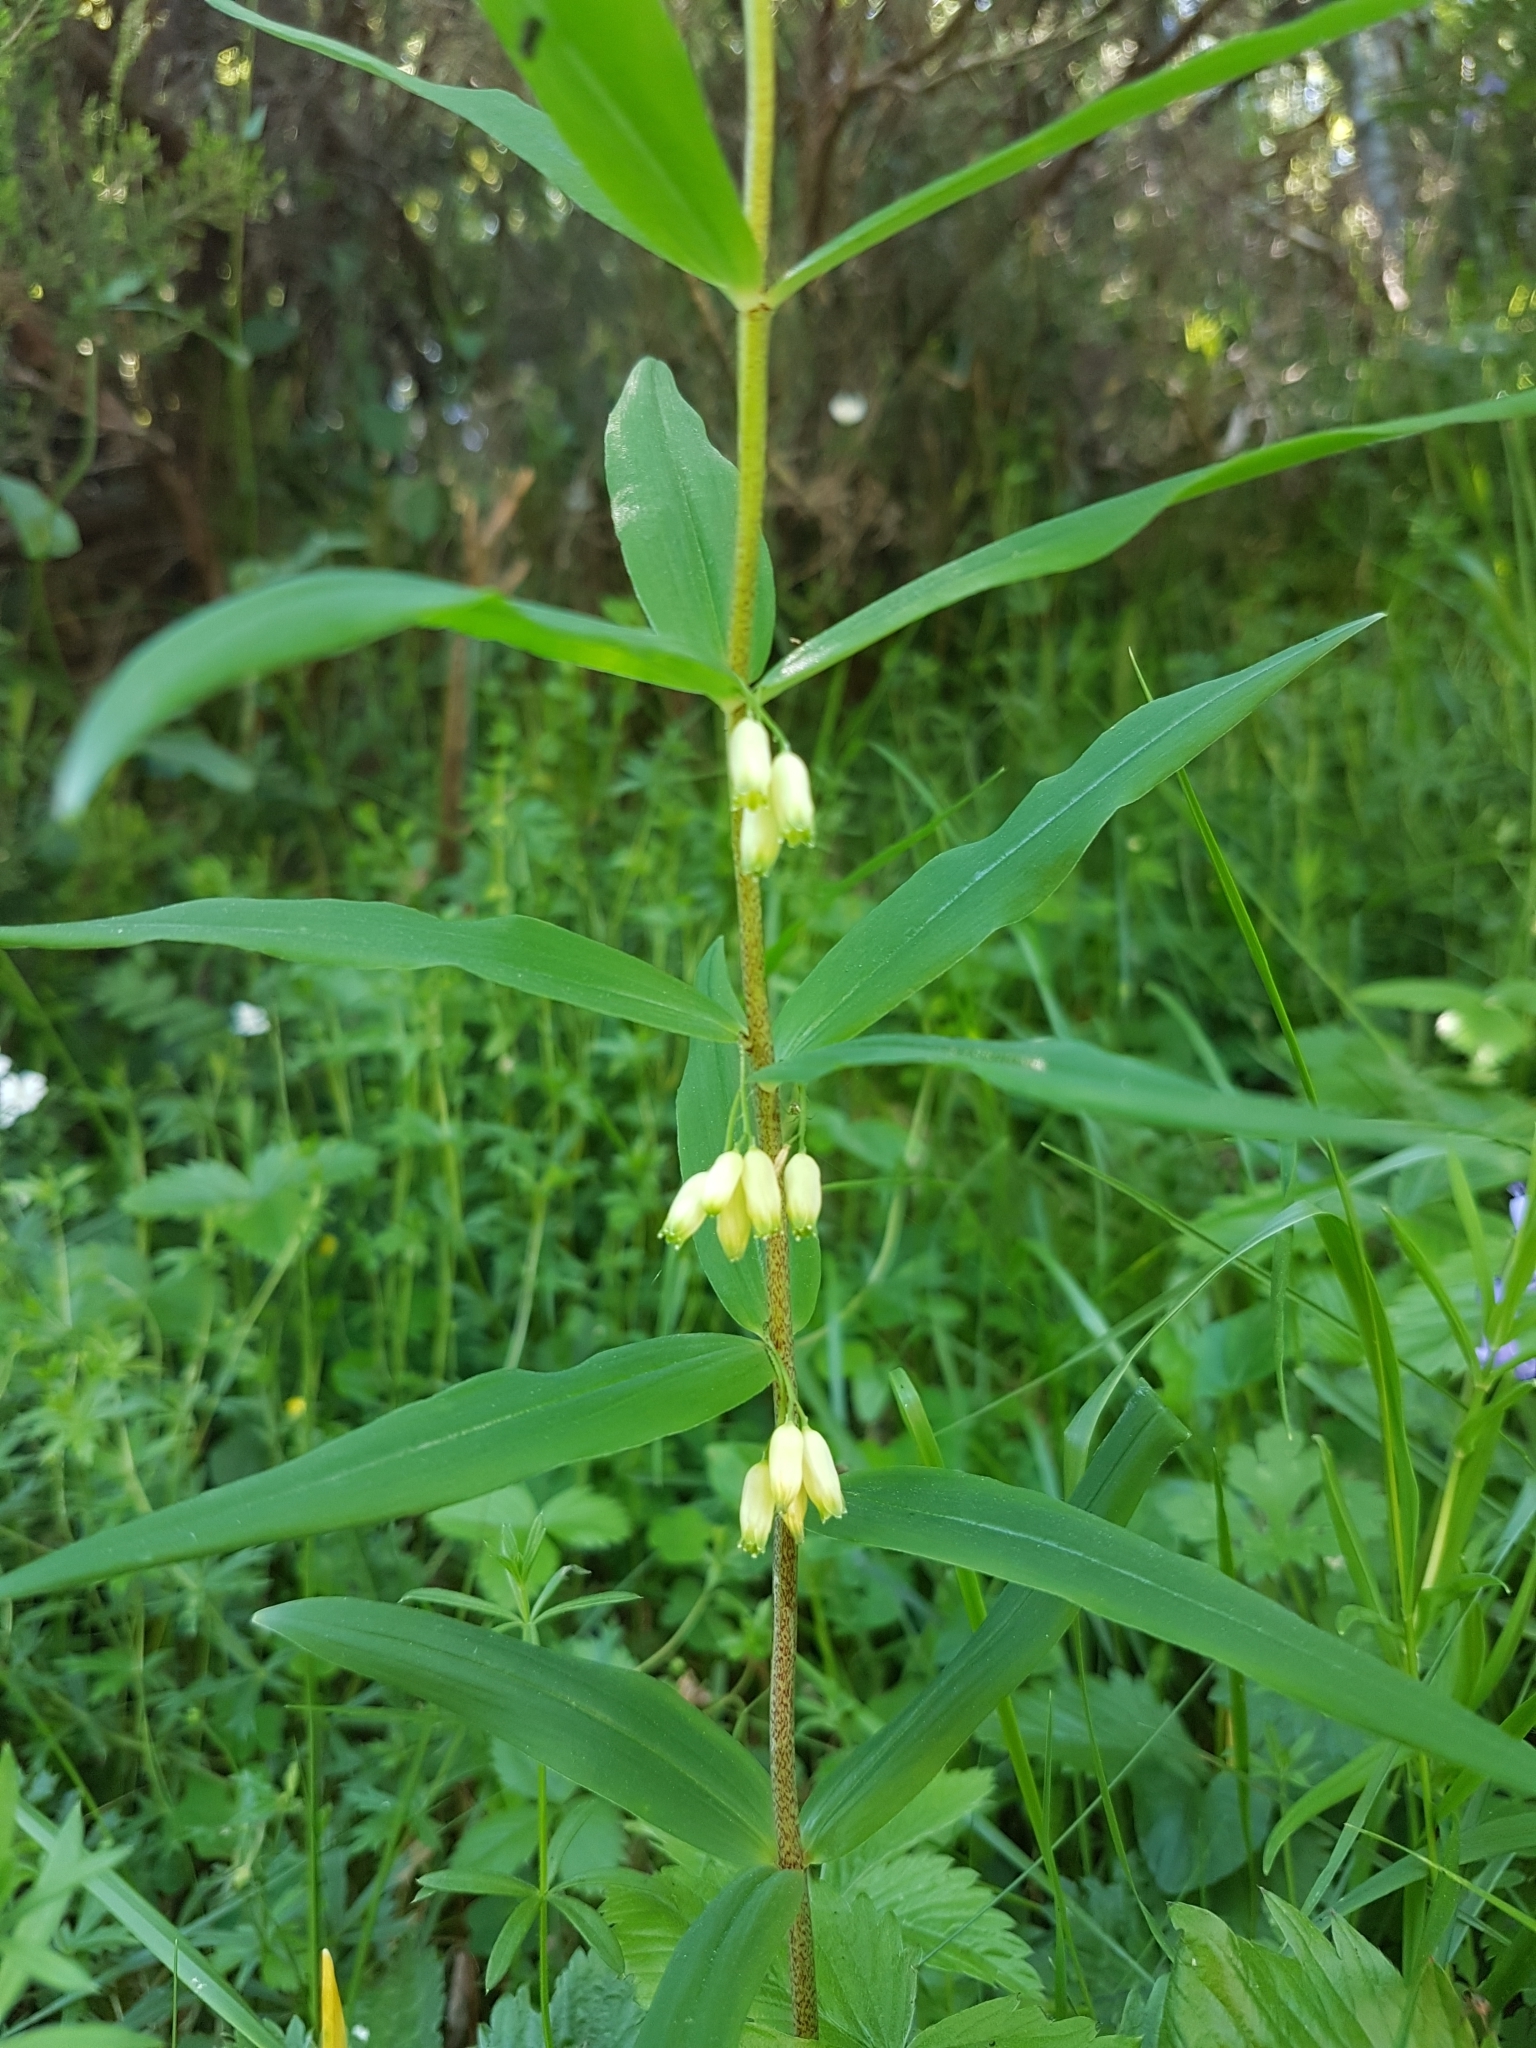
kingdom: Plantae
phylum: Tracheophyta
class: Liliopsida
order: Asparagales
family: Asparagaceae
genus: Polygonatum
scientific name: Polygonatum verticillatum
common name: Whorled solomon's-seal
